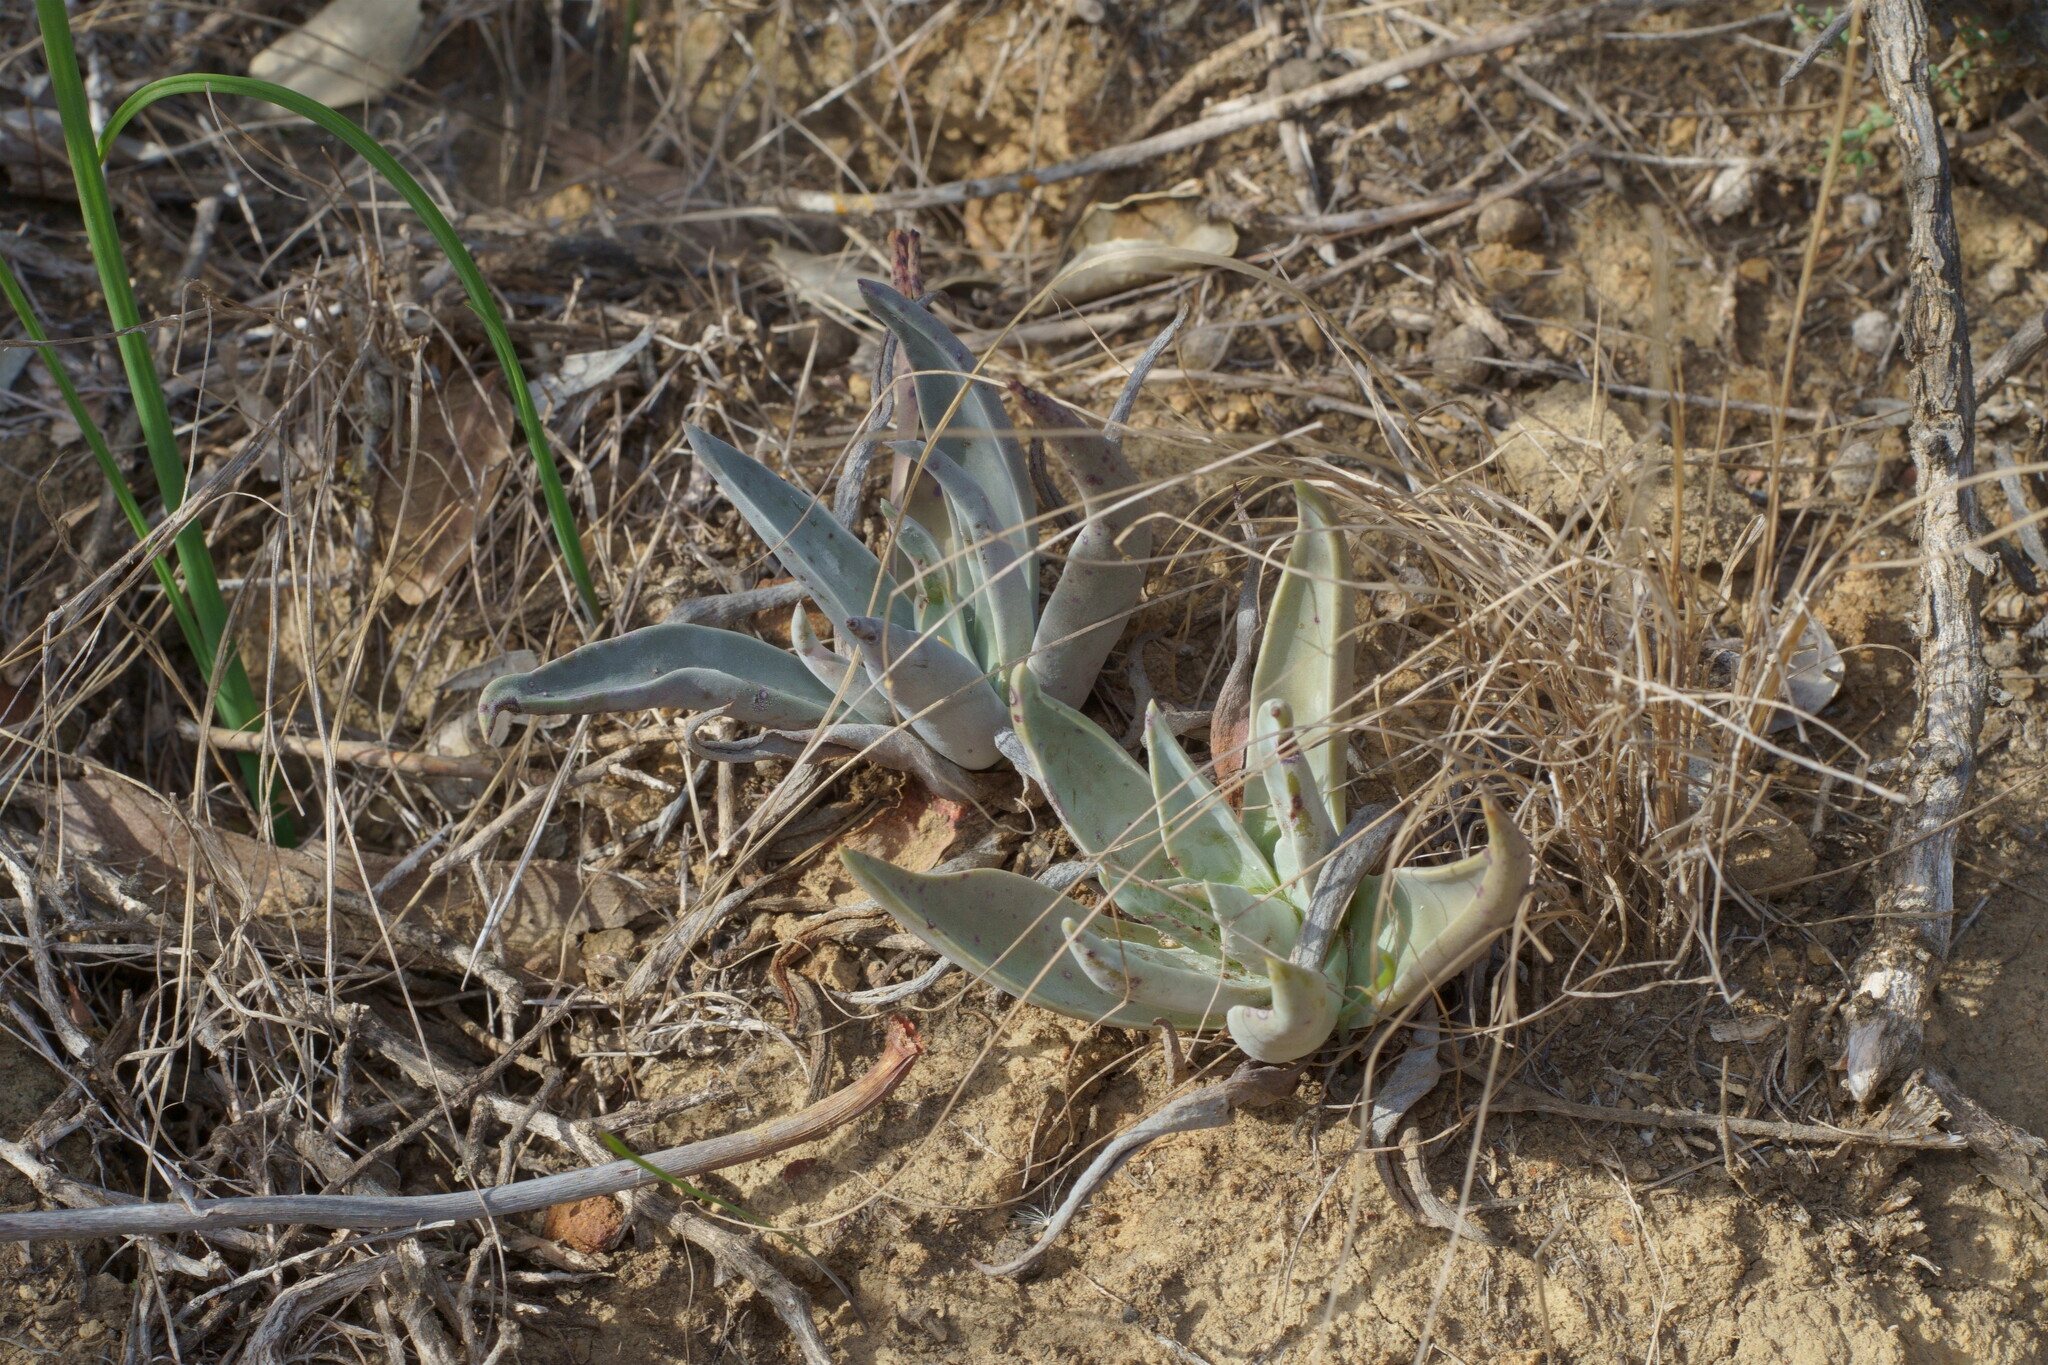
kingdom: Plantae
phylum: Tracheophyta
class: Magnoliopsida
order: Saxifragales
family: Crassulaceae
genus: Dudleya
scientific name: Dudleya lanceolata
